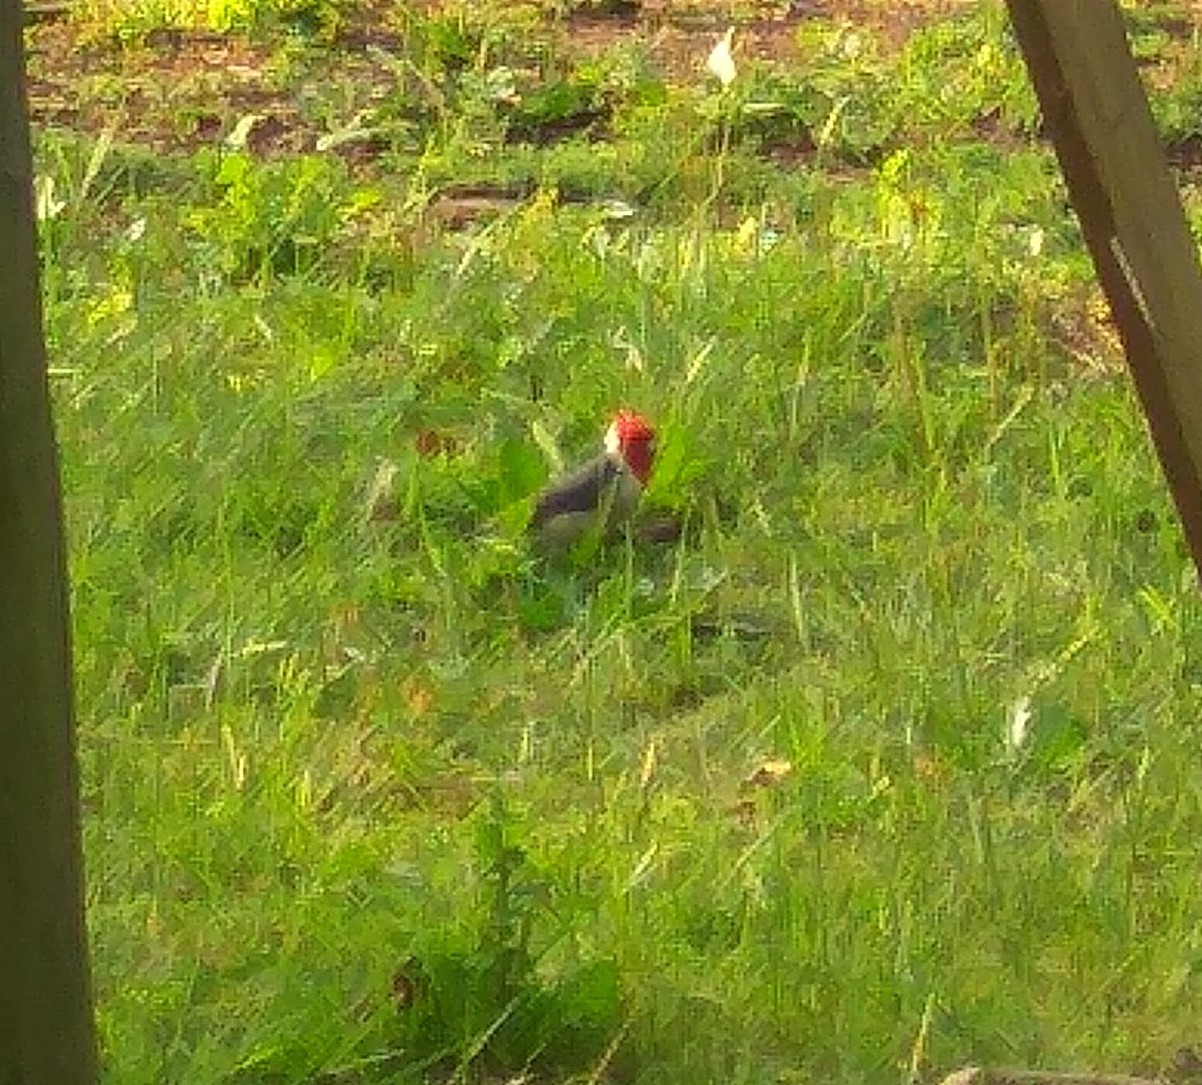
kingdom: Animalia
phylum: Chordata
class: Aves
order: Passeriformes
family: Thraupidae
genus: Paroaria
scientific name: Paroaria coronata
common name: Red-crested cardinal
